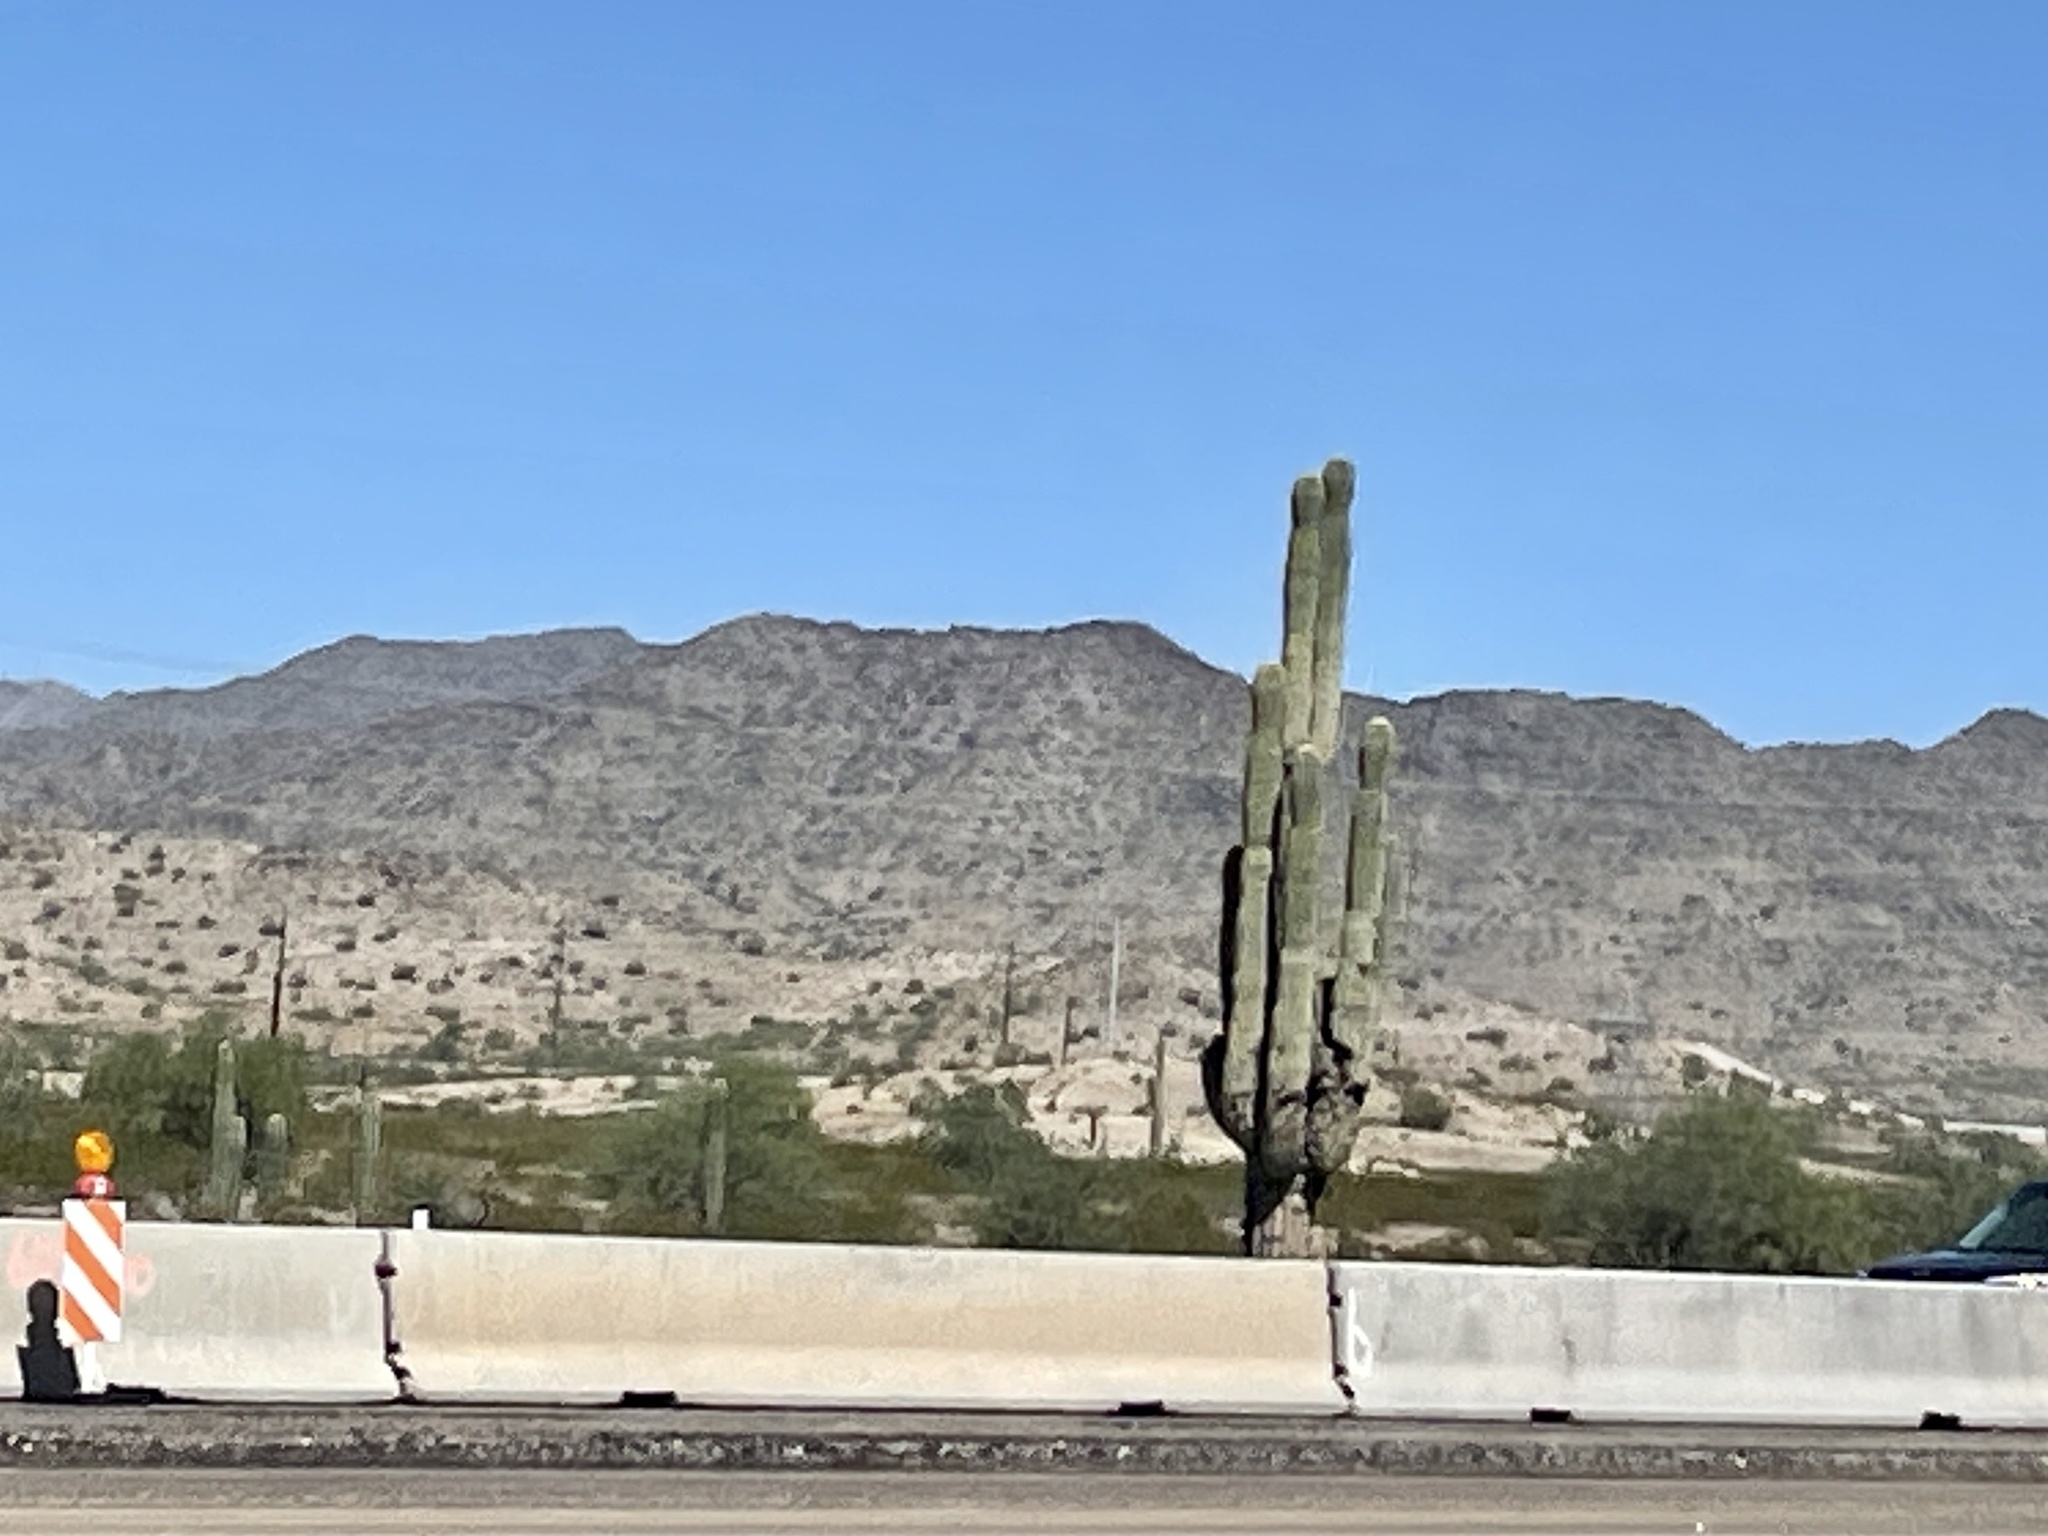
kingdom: Plantae
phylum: Tracheophyta
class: Magnoliopsida
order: Caryophyllales
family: Cactaceae
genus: Carnegiea
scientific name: Carnegiea gigantea
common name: Saguaro
